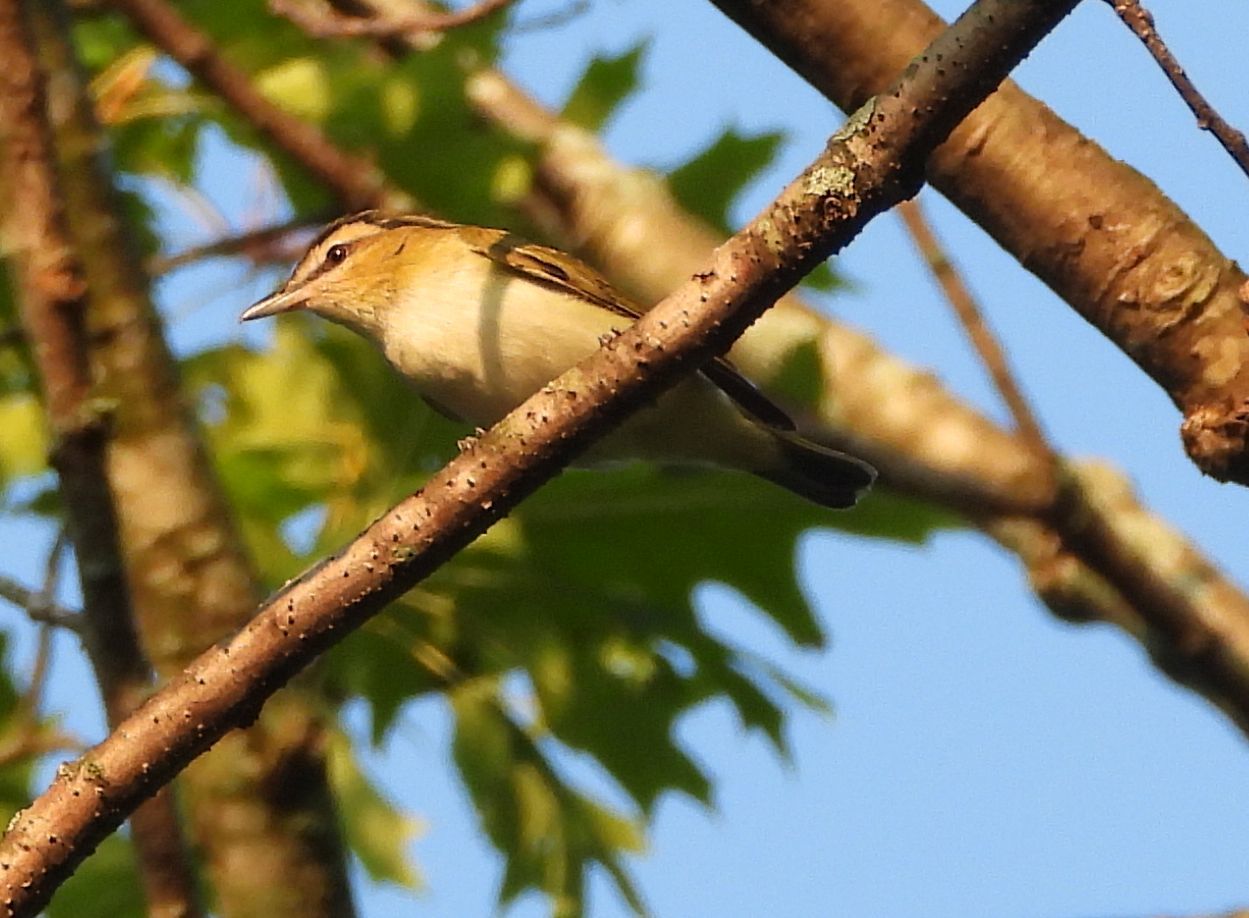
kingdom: Animalia
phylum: Chordata
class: Aves
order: Passeriformes
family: Vireonidae
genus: Vireo
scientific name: Vireo olivaceus
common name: Red-eyed vireo
